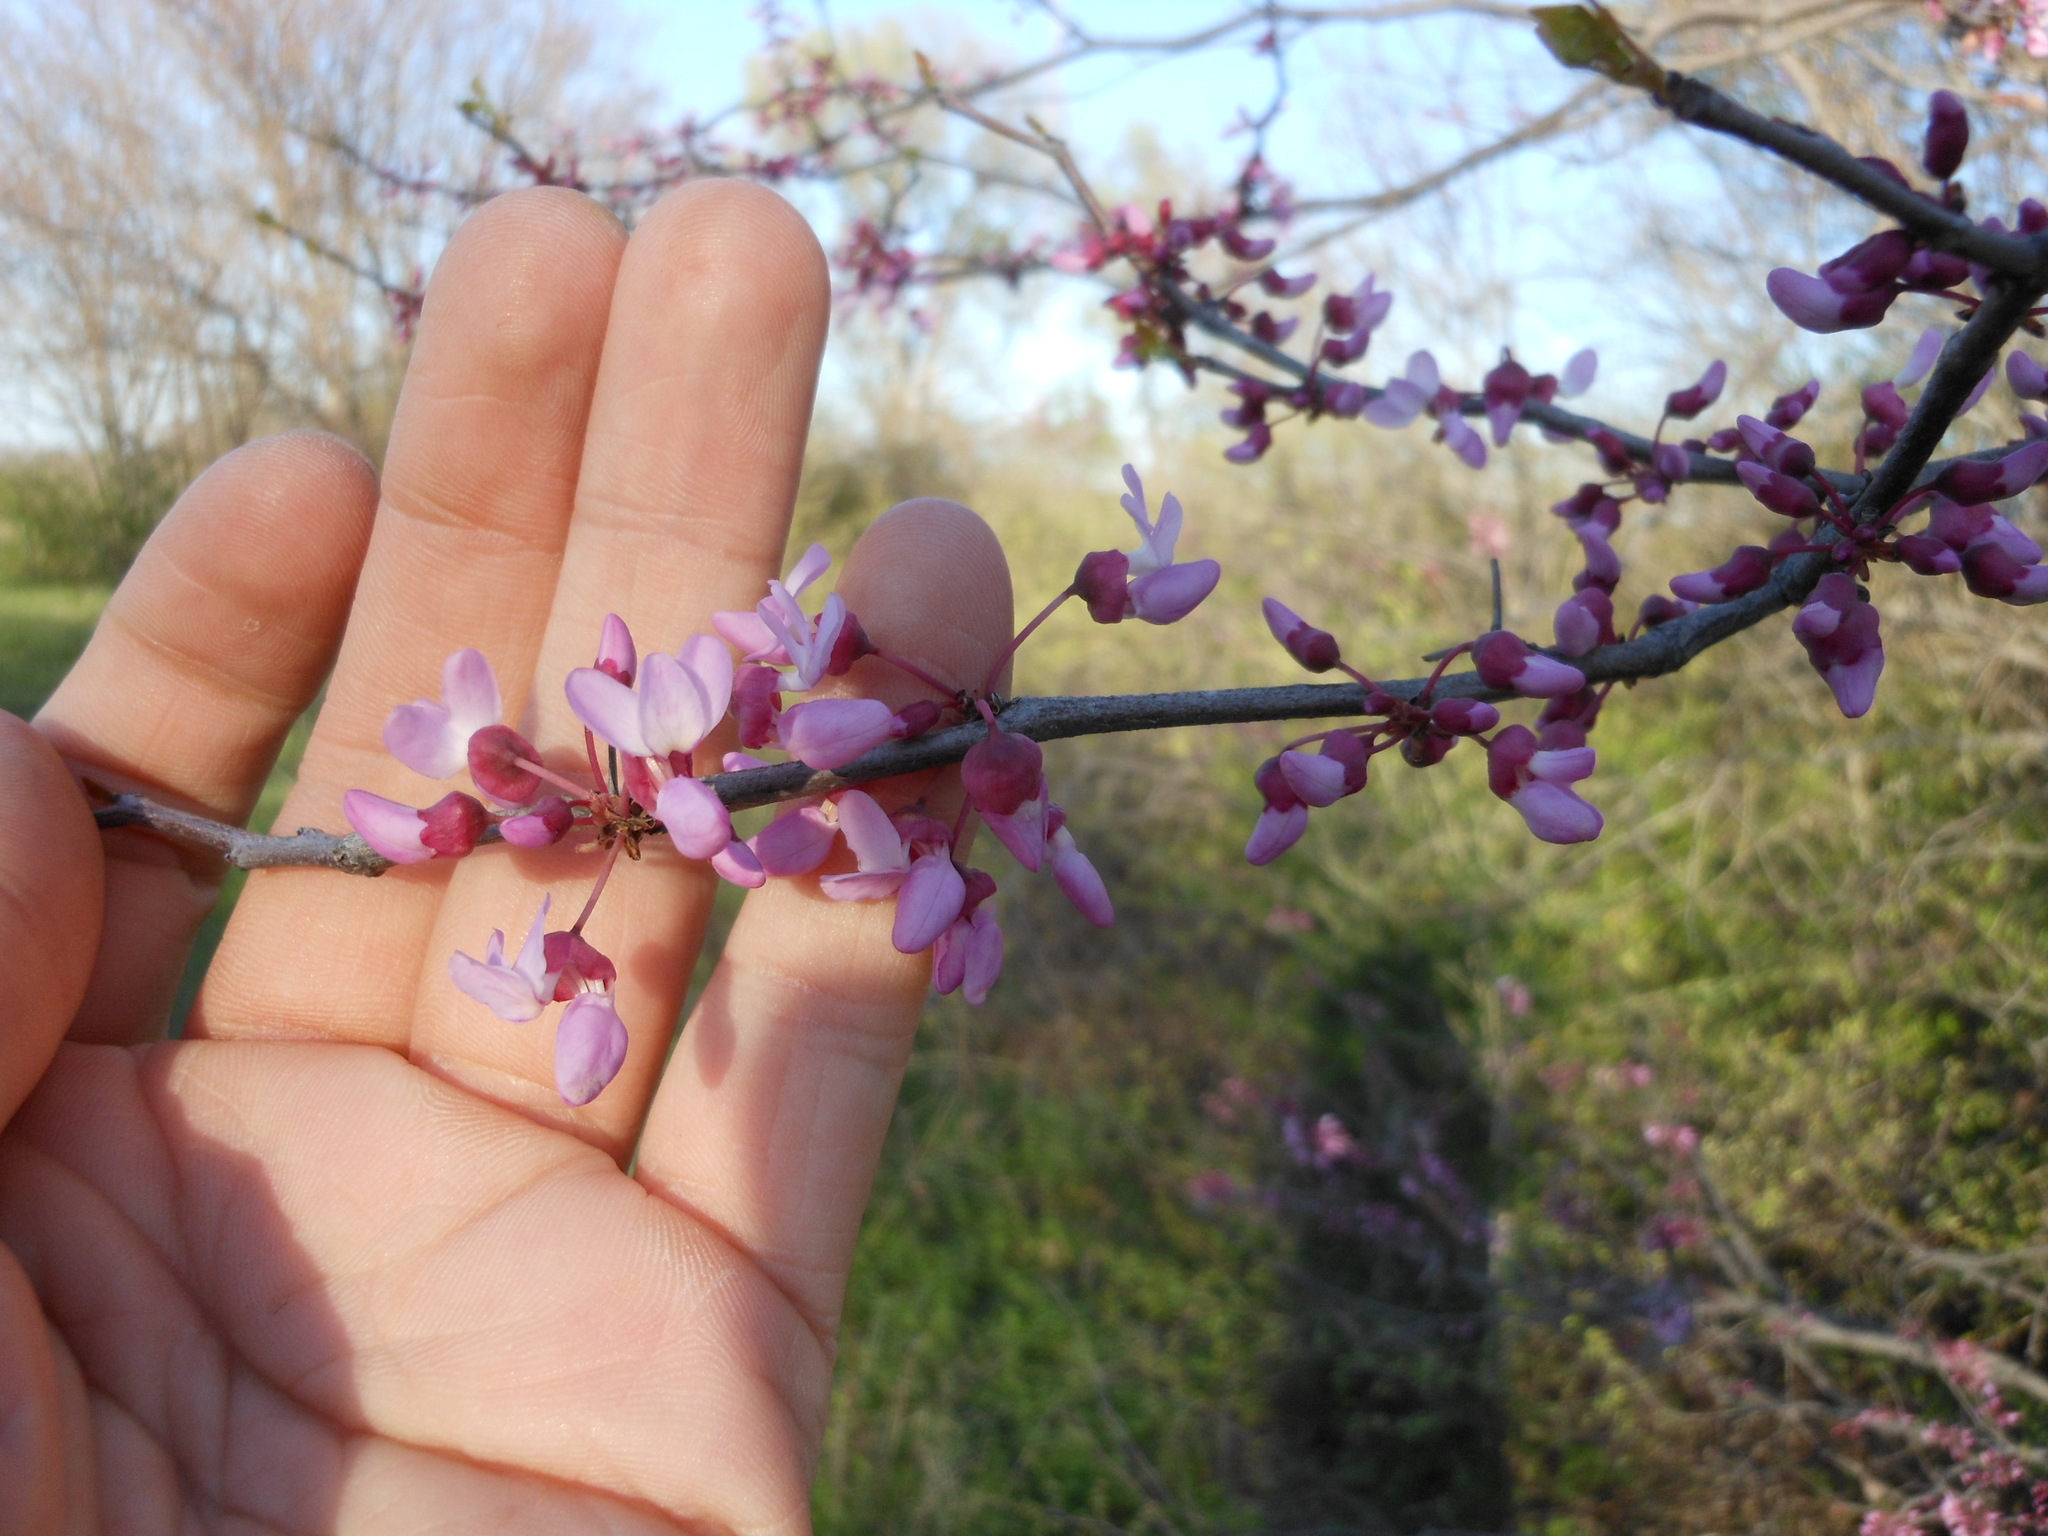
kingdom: Plantae
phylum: Tracheophyta
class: Magnoliopsida
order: Fabales
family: Fabaceae
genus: Cercis
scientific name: Cercis canadensis
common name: Eastern redbud
